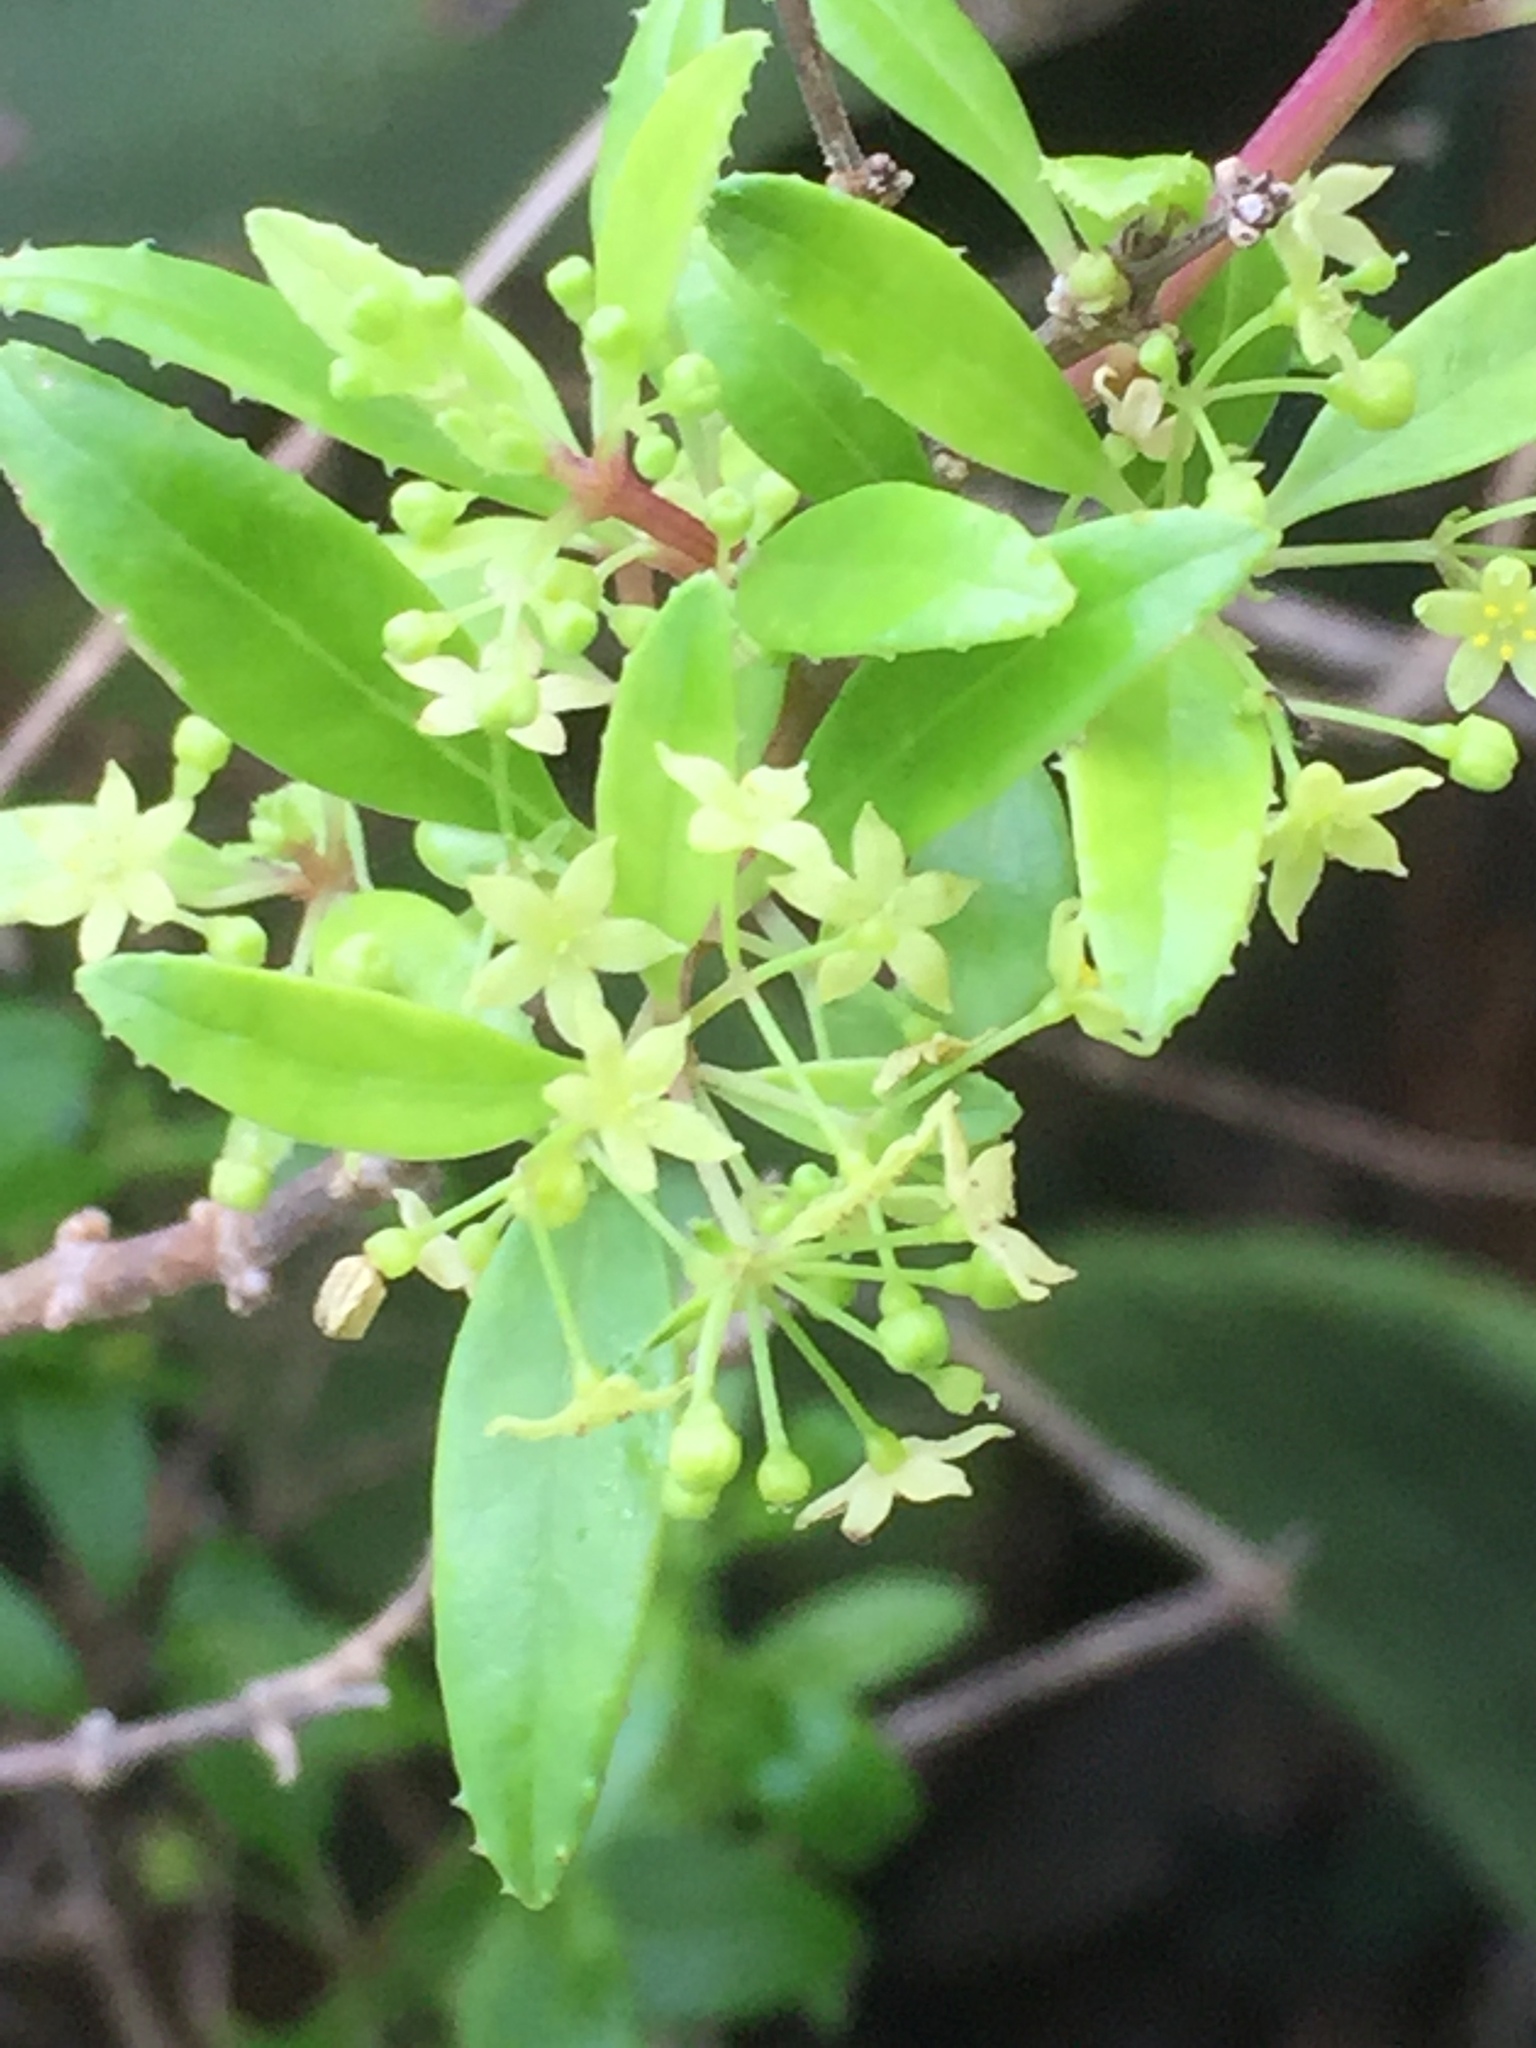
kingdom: Plantae
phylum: Tracheophyta
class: Magnoliopsida
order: Gentianales
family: Rubiaceae
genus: Rubia
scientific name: Rubia fruticosa
